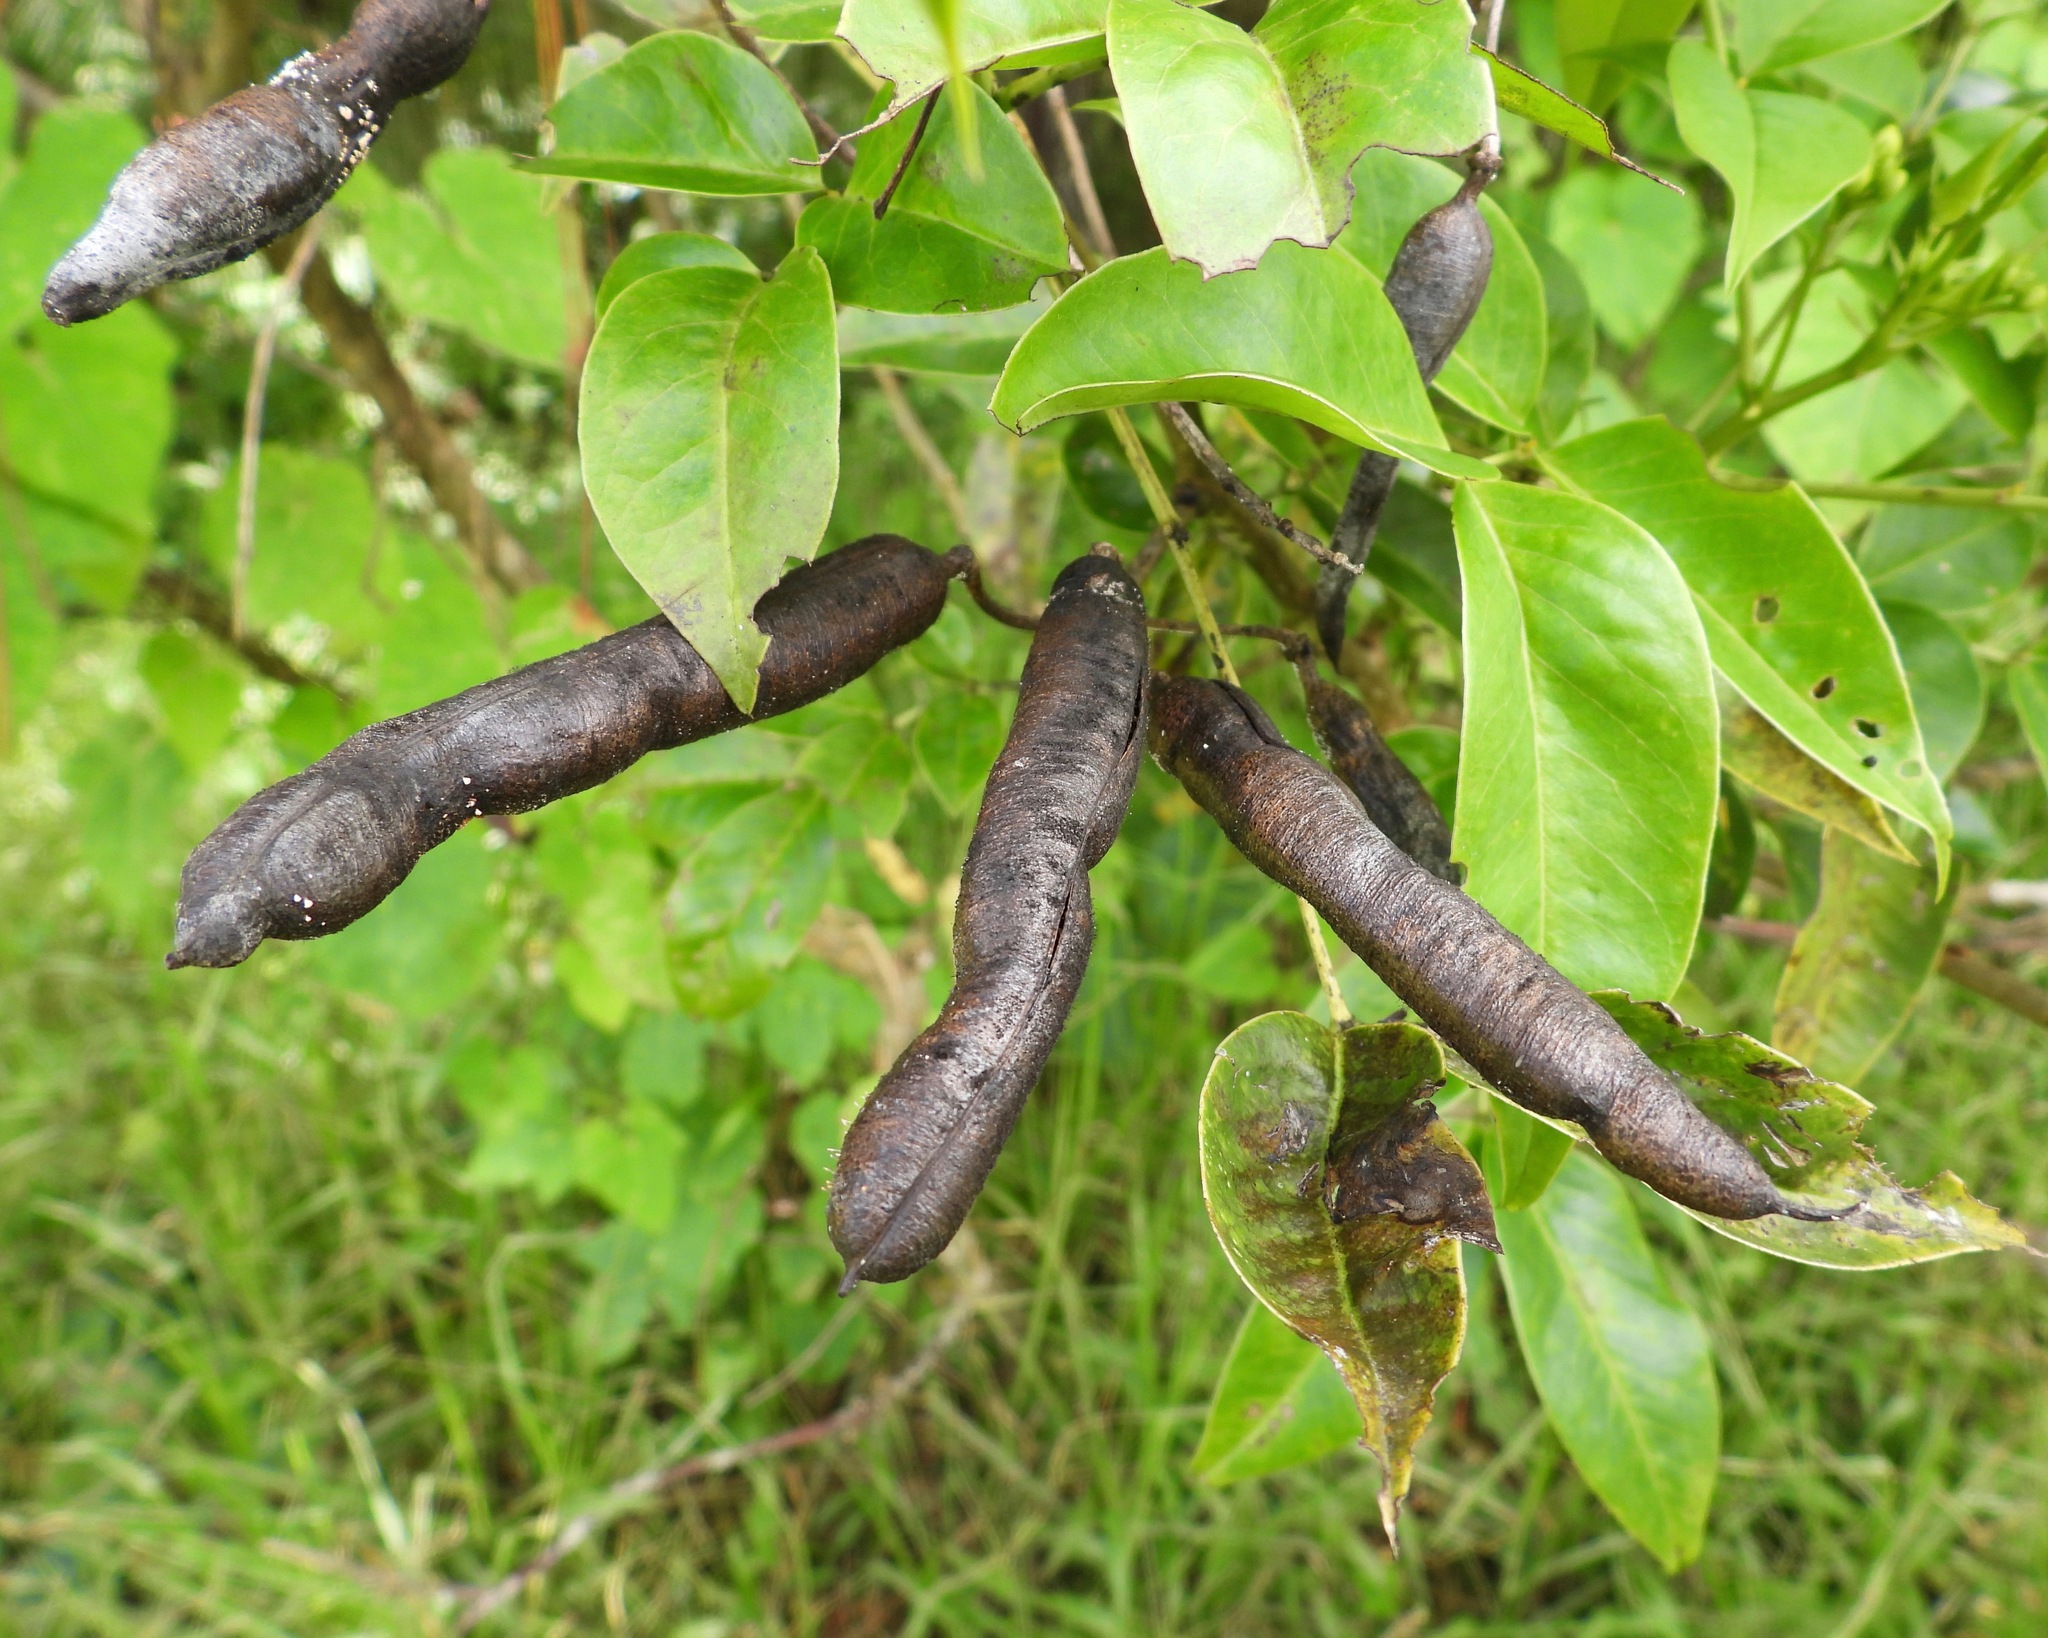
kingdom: Plantae
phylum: Tracheophyta
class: Magnoliopsida
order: Fabales
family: Fabaceae
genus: Senna
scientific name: Senna septemtrionalis
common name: Arsenic bush
